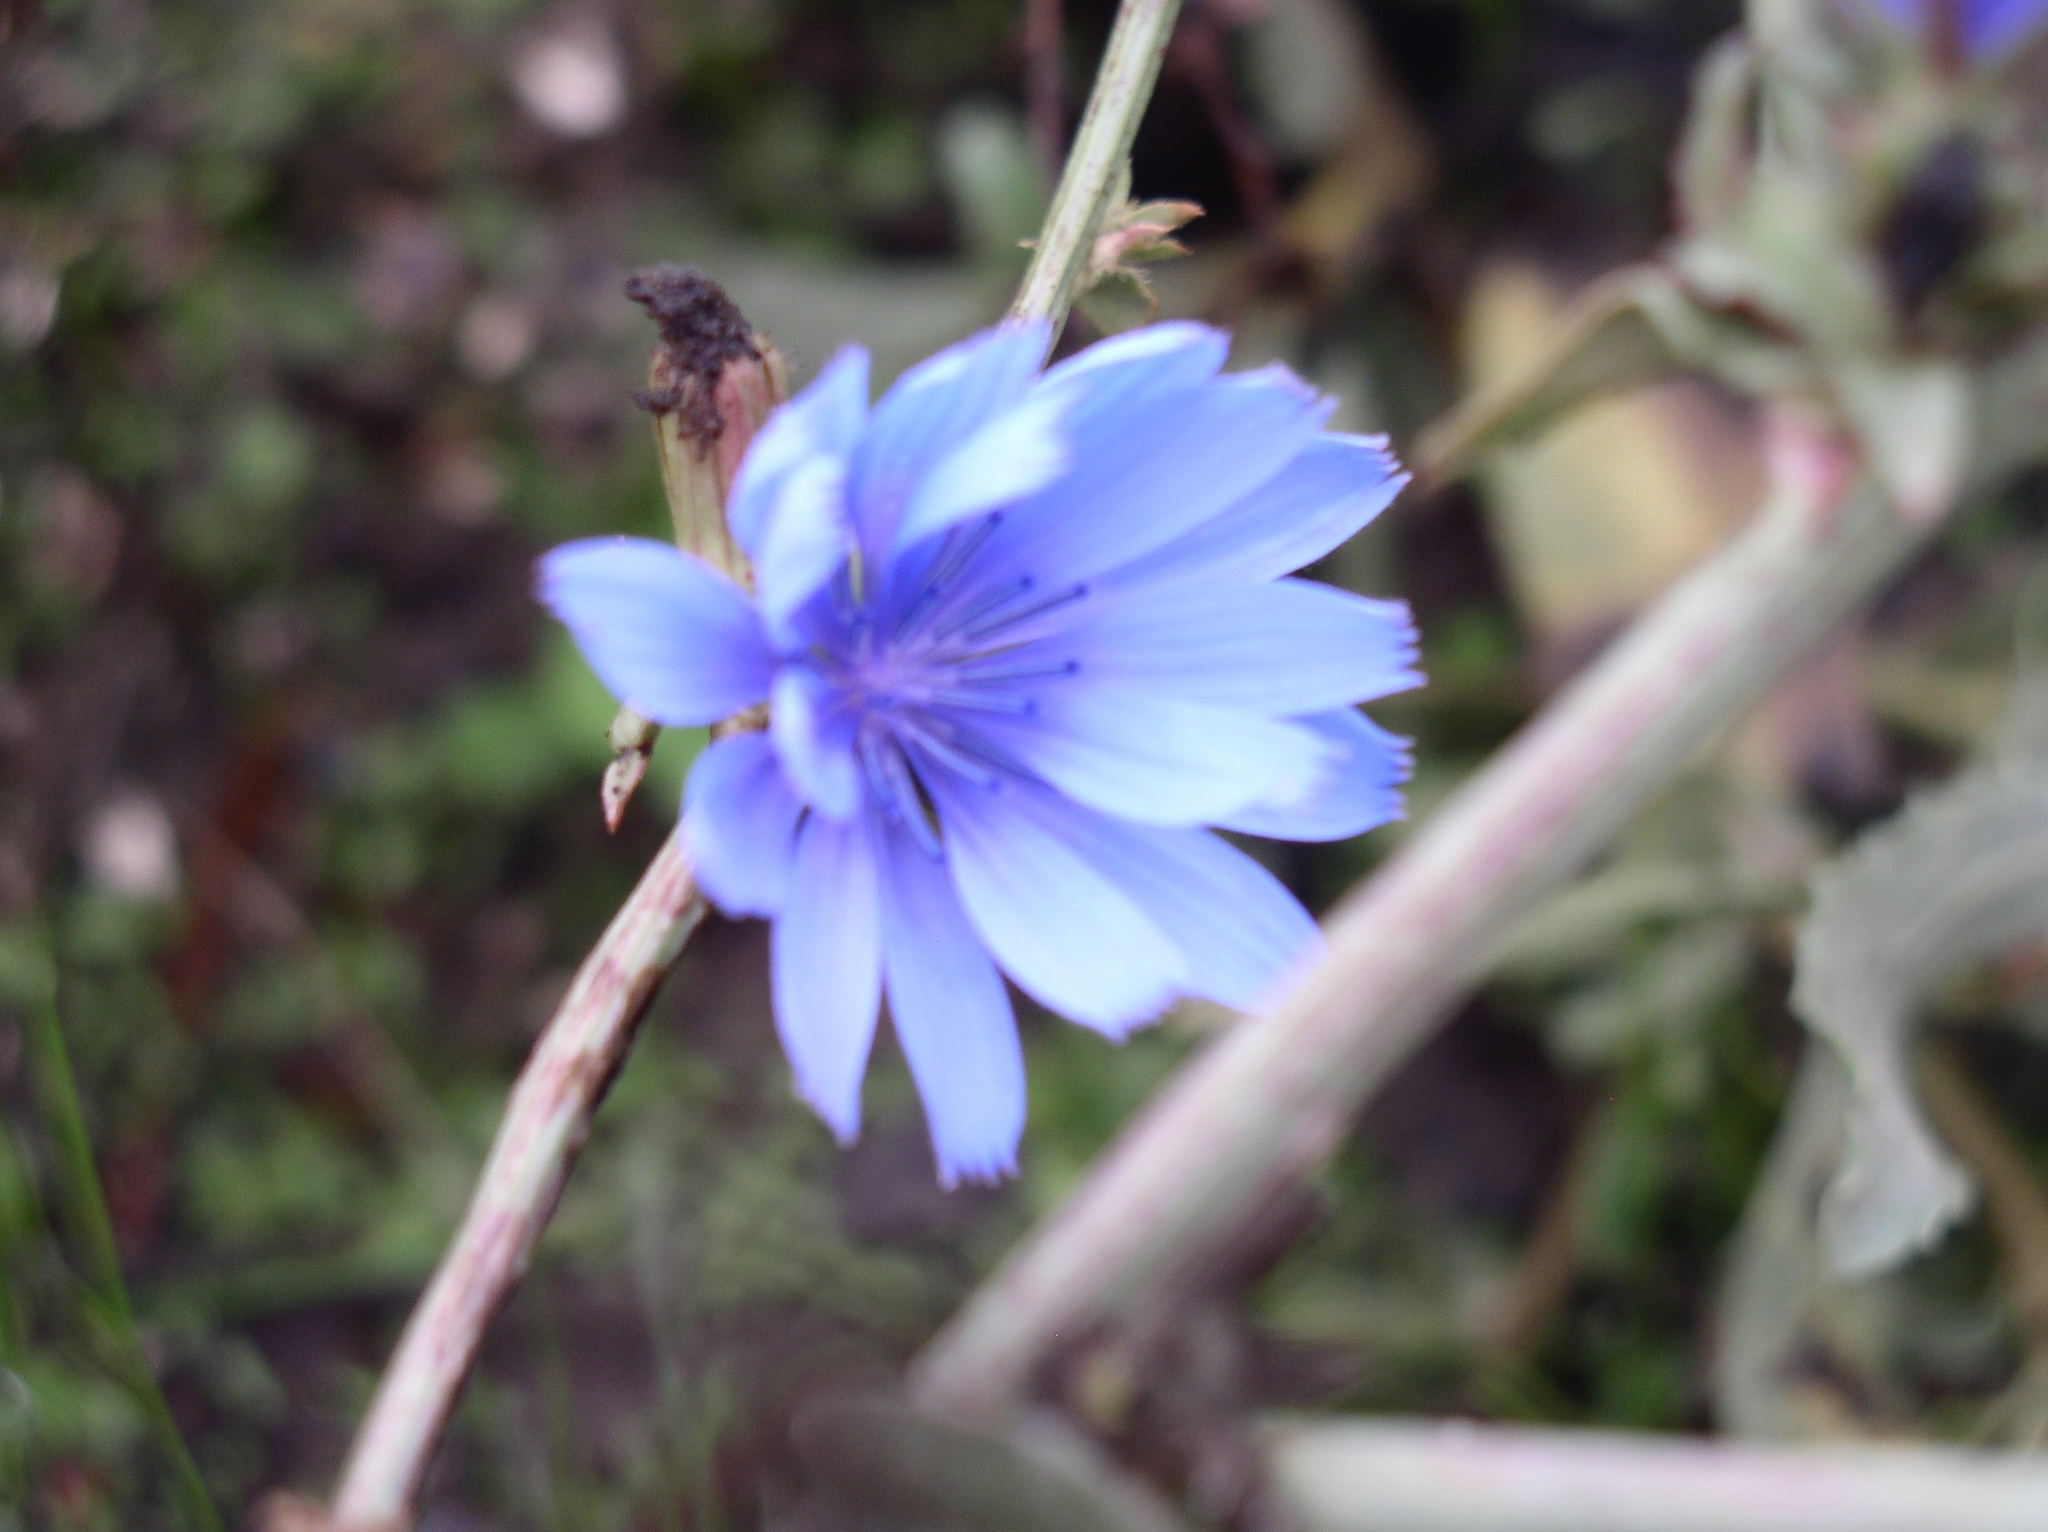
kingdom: Plantae
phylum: Tracheophyta
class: Magnoliopsida
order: Asterales
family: Asteraceae
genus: Cichorium
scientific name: Cichorium intybus
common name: Chicory
